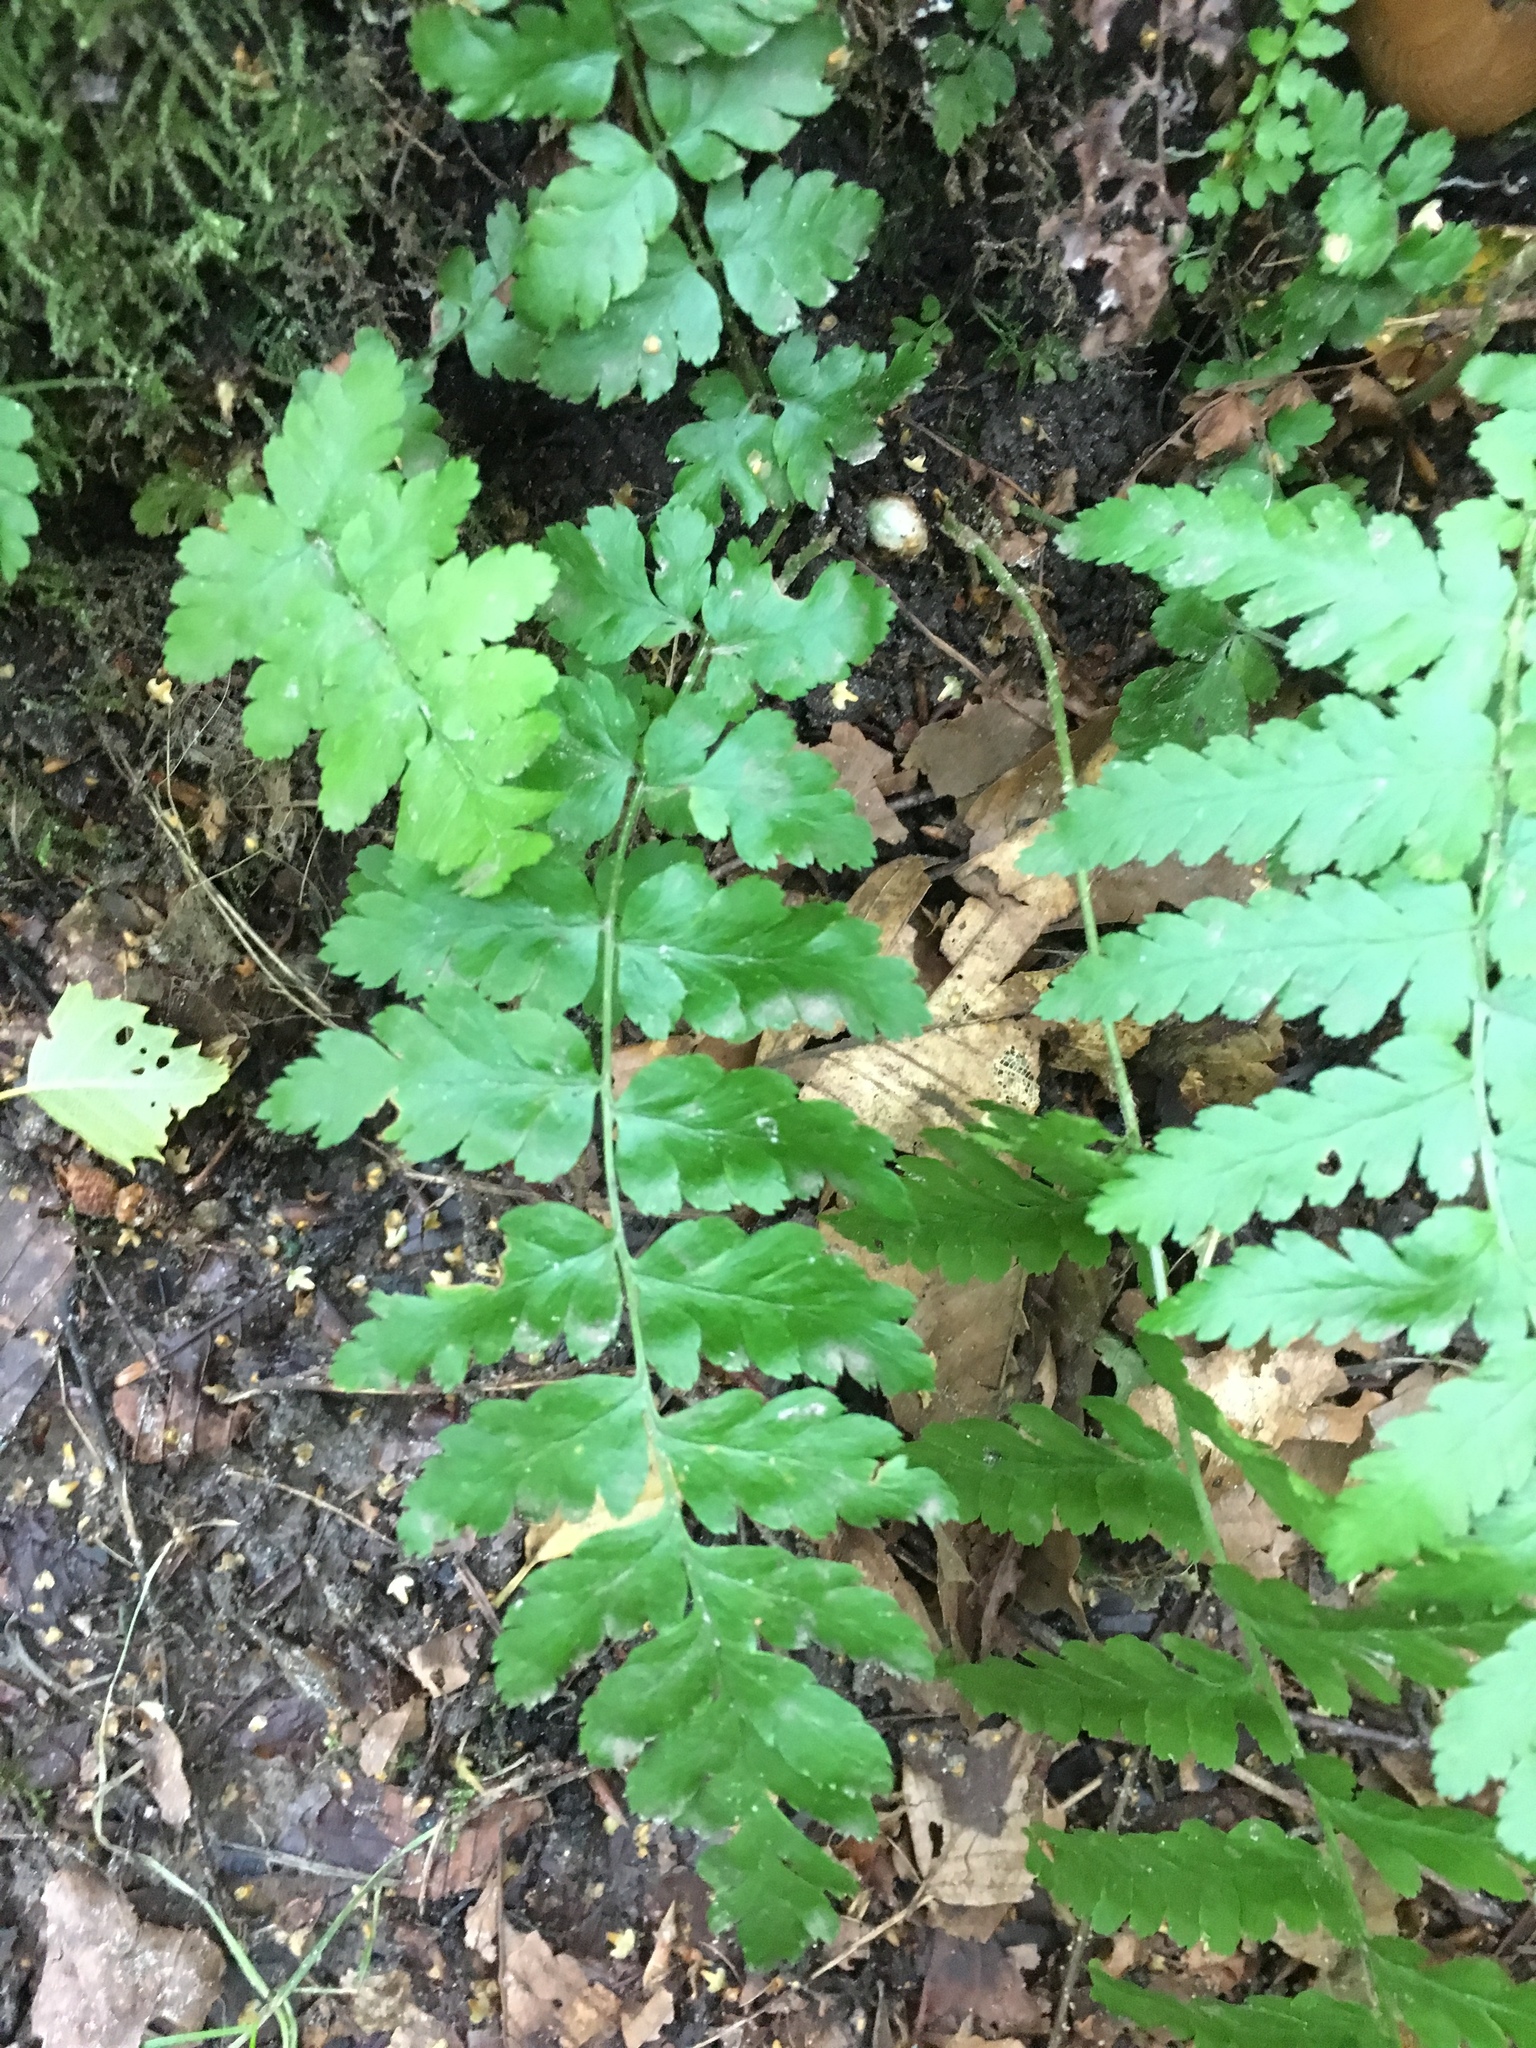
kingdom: Plantae
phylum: Tracheophyta
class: Polypodiopsida
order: Polypodiales
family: Dryopteridaceae
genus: Dryopteris
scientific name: Dryopteris cristata
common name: Crested wood fern
